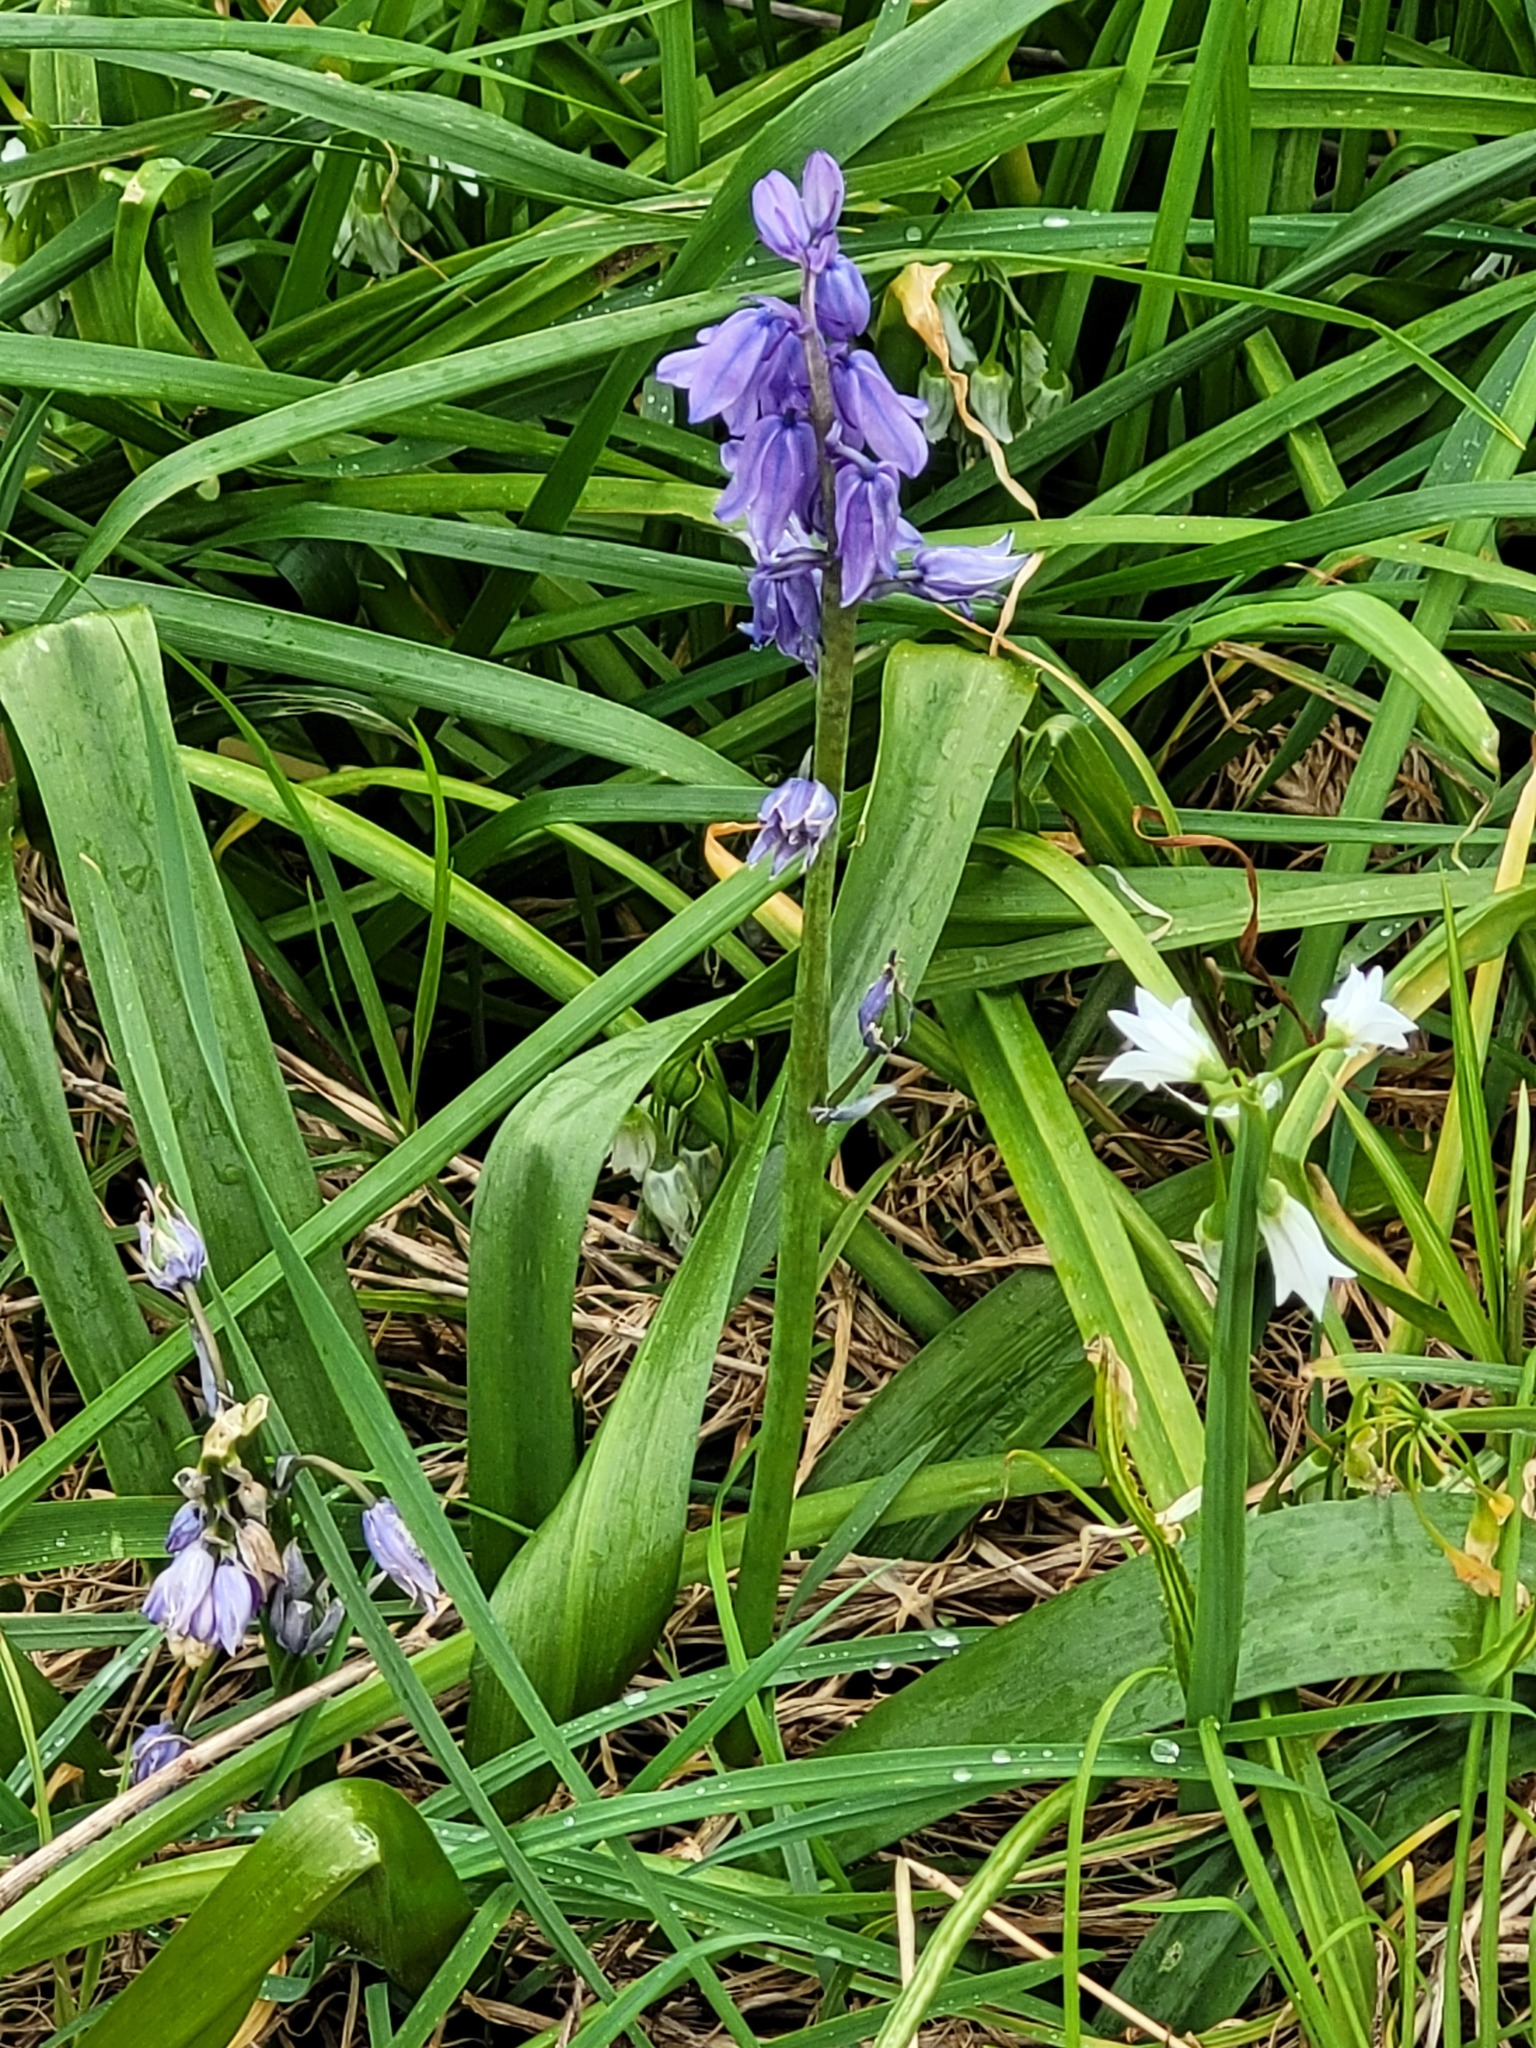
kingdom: Plantae
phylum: Tracheophyta
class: Liliopsida
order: Asparagales
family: Asparagaceae
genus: Hyacinthoides
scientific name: Hyacinthoides massartiana
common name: Hyacinthoides
